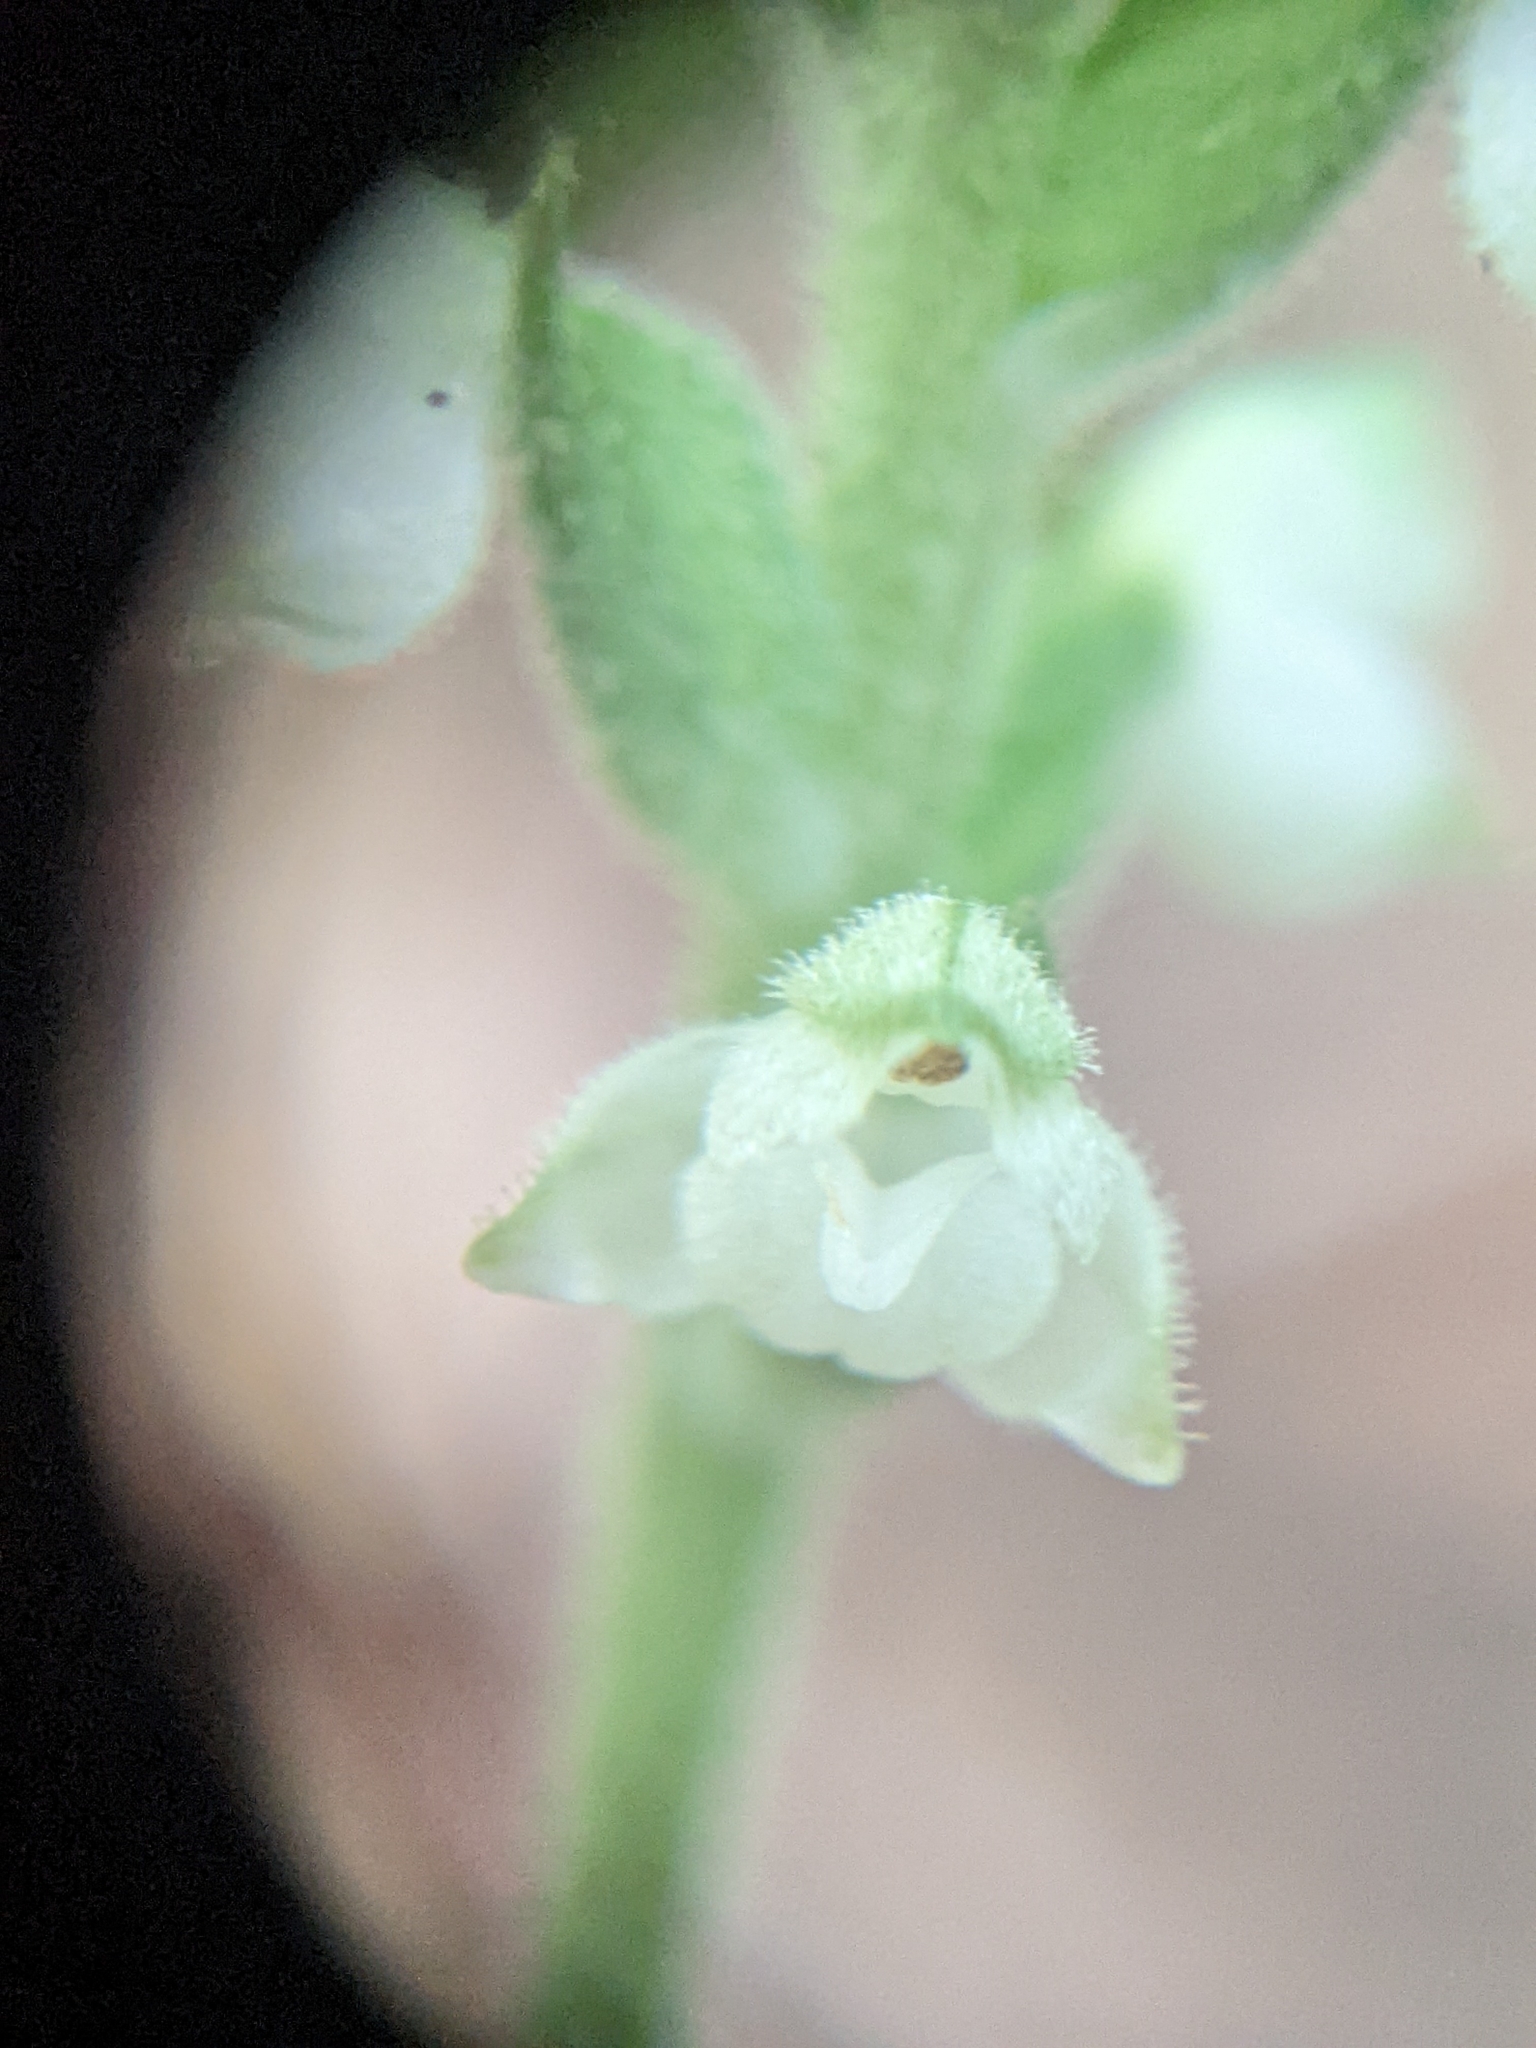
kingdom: Plantae
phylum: Tracheophyta
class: Liliopsida
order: Asparagales
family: Orchidaceae
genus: Goodyera
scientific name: Goodyera pubescens
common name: Downy rattlesnake-plantain
